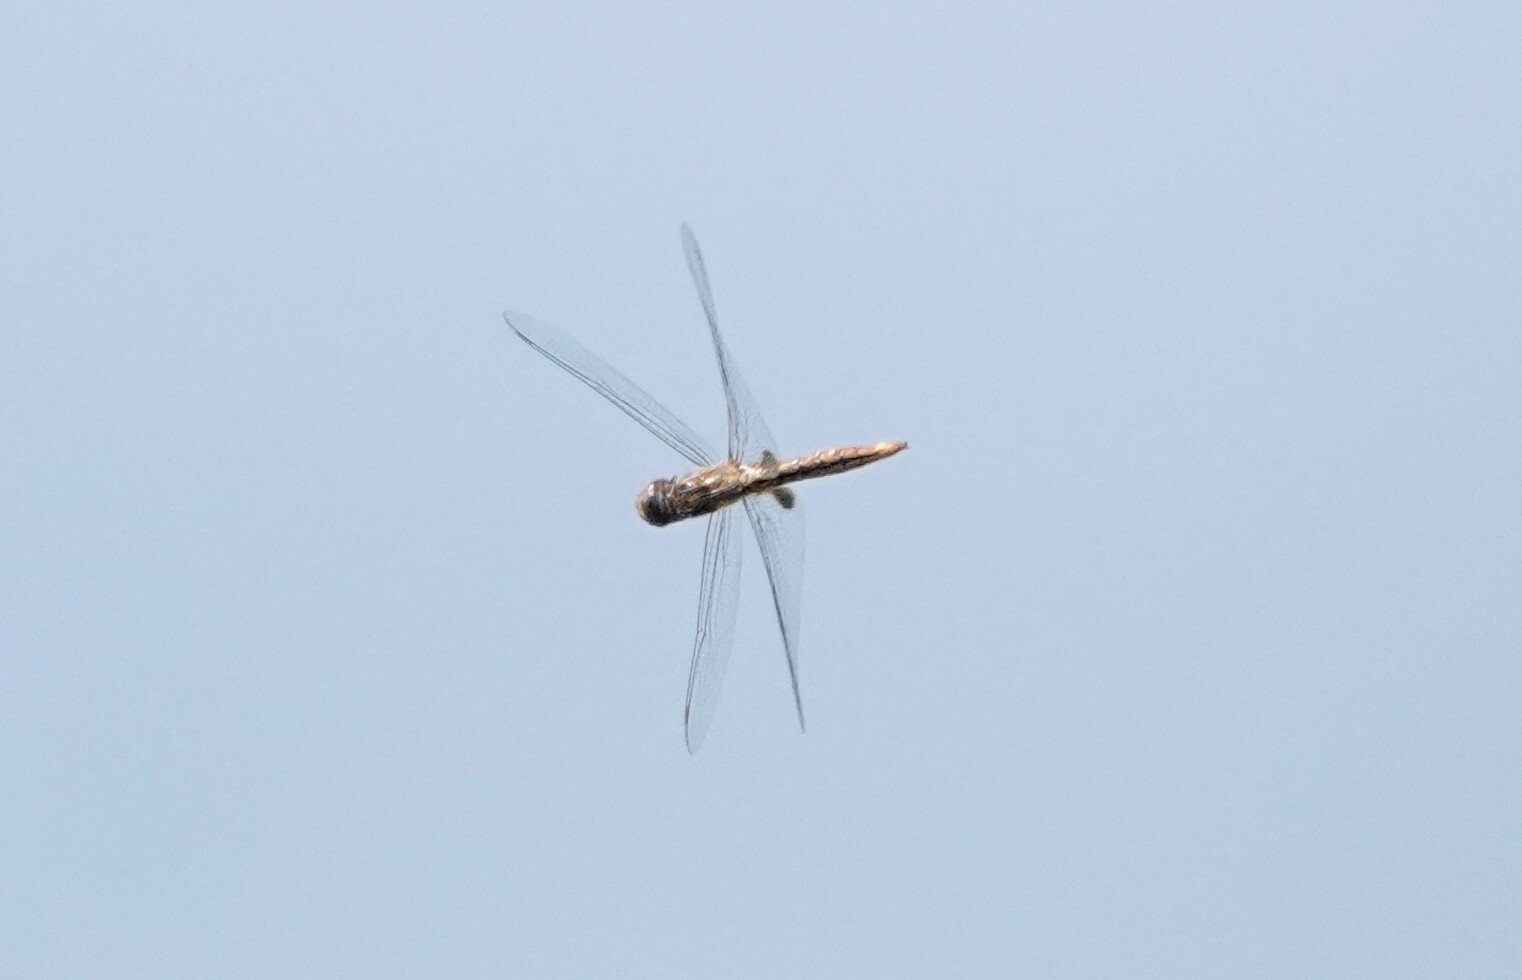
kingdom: Animalia
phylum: Arthropoda
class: Insecta
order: Odonata
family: Libellulidae
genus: Pantala
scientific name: Pantala hymenaea
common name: Spot-winged glider
